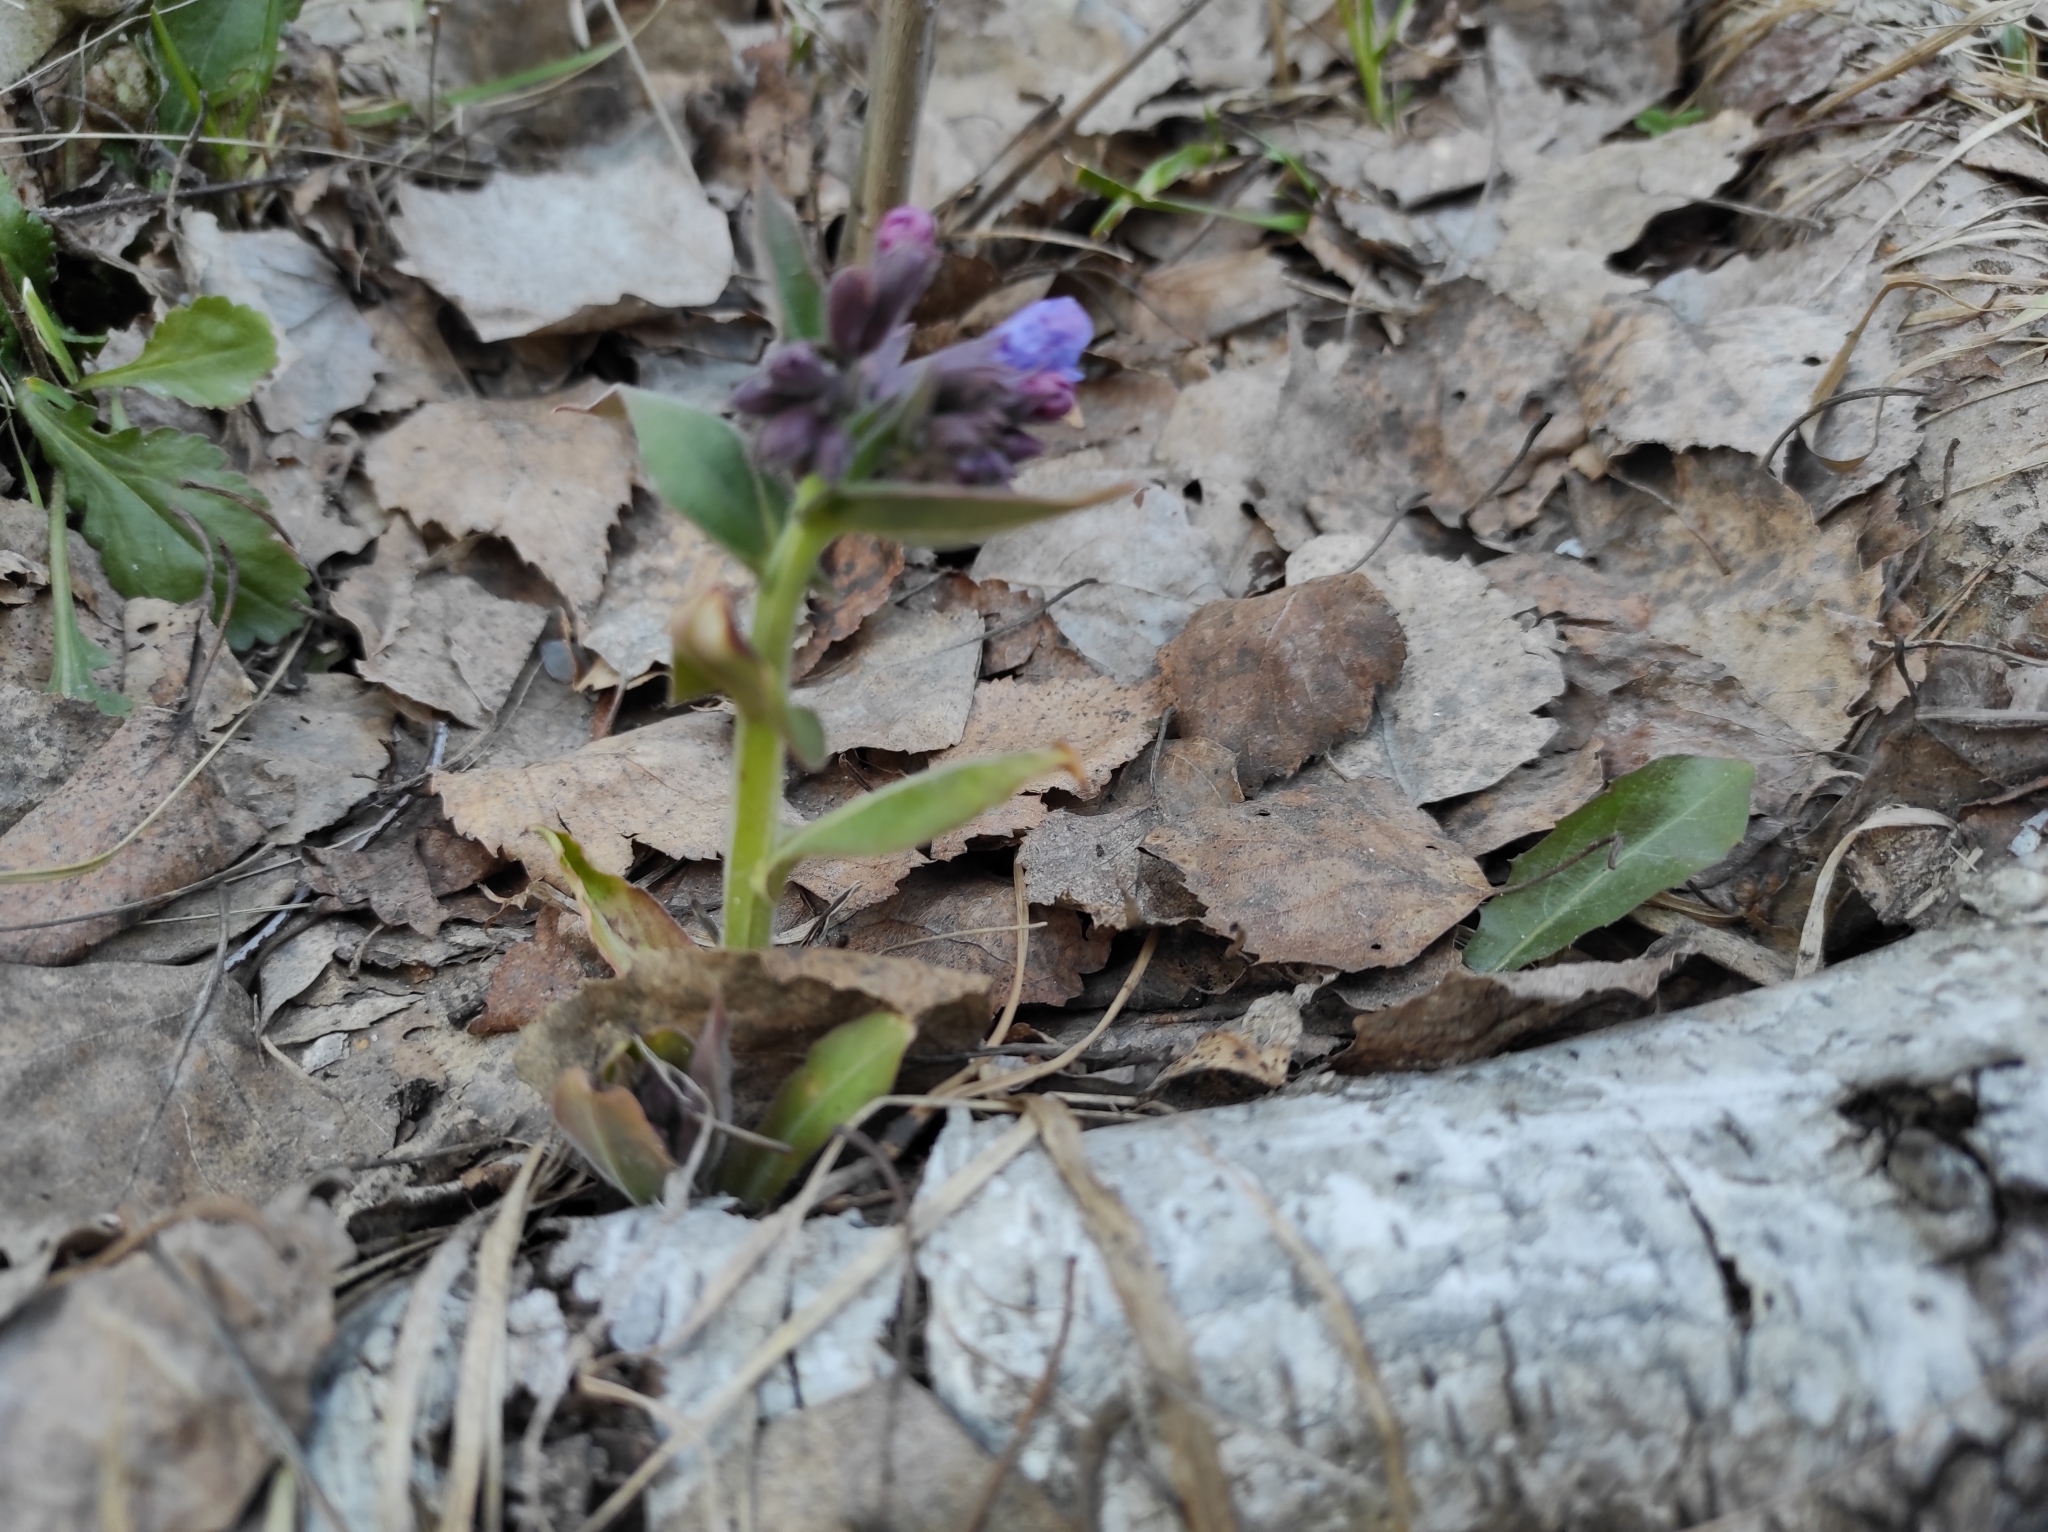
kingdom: Plantae
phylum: Tracheophyta
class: Magnoliopsida
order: Boraginales
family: Boraginaceae
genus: Pulmonaria
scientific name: Pulmonaria mollis
